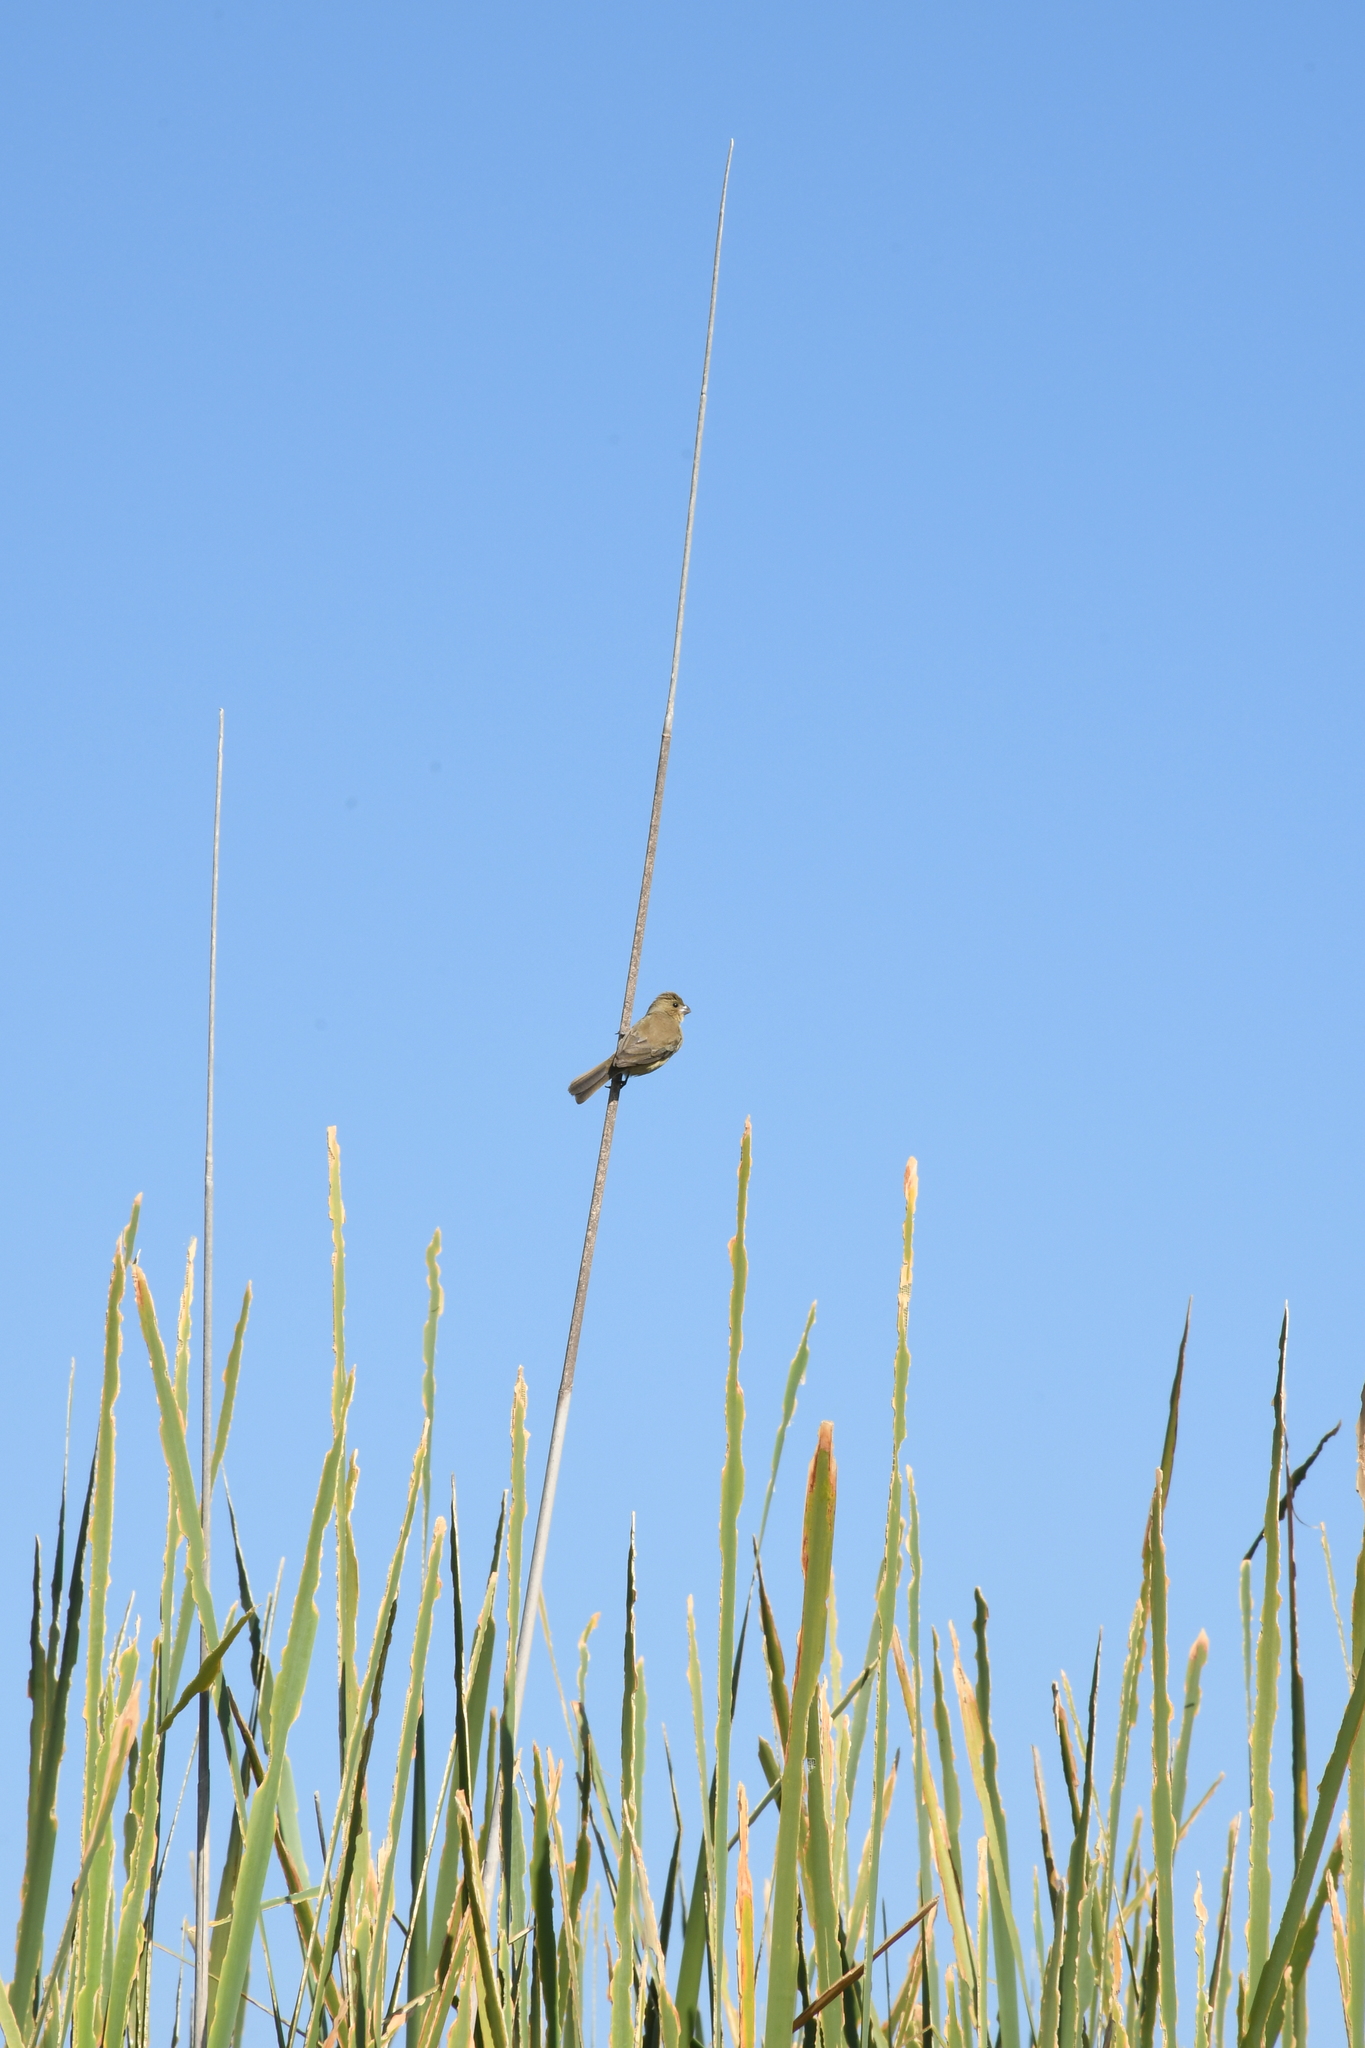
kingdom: Animalia
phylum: Chordata
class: Aves
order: Passeriformes
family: Thraupidae
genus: Sporophila
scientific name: Sporophila torqueola
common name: White-collared seedeater
